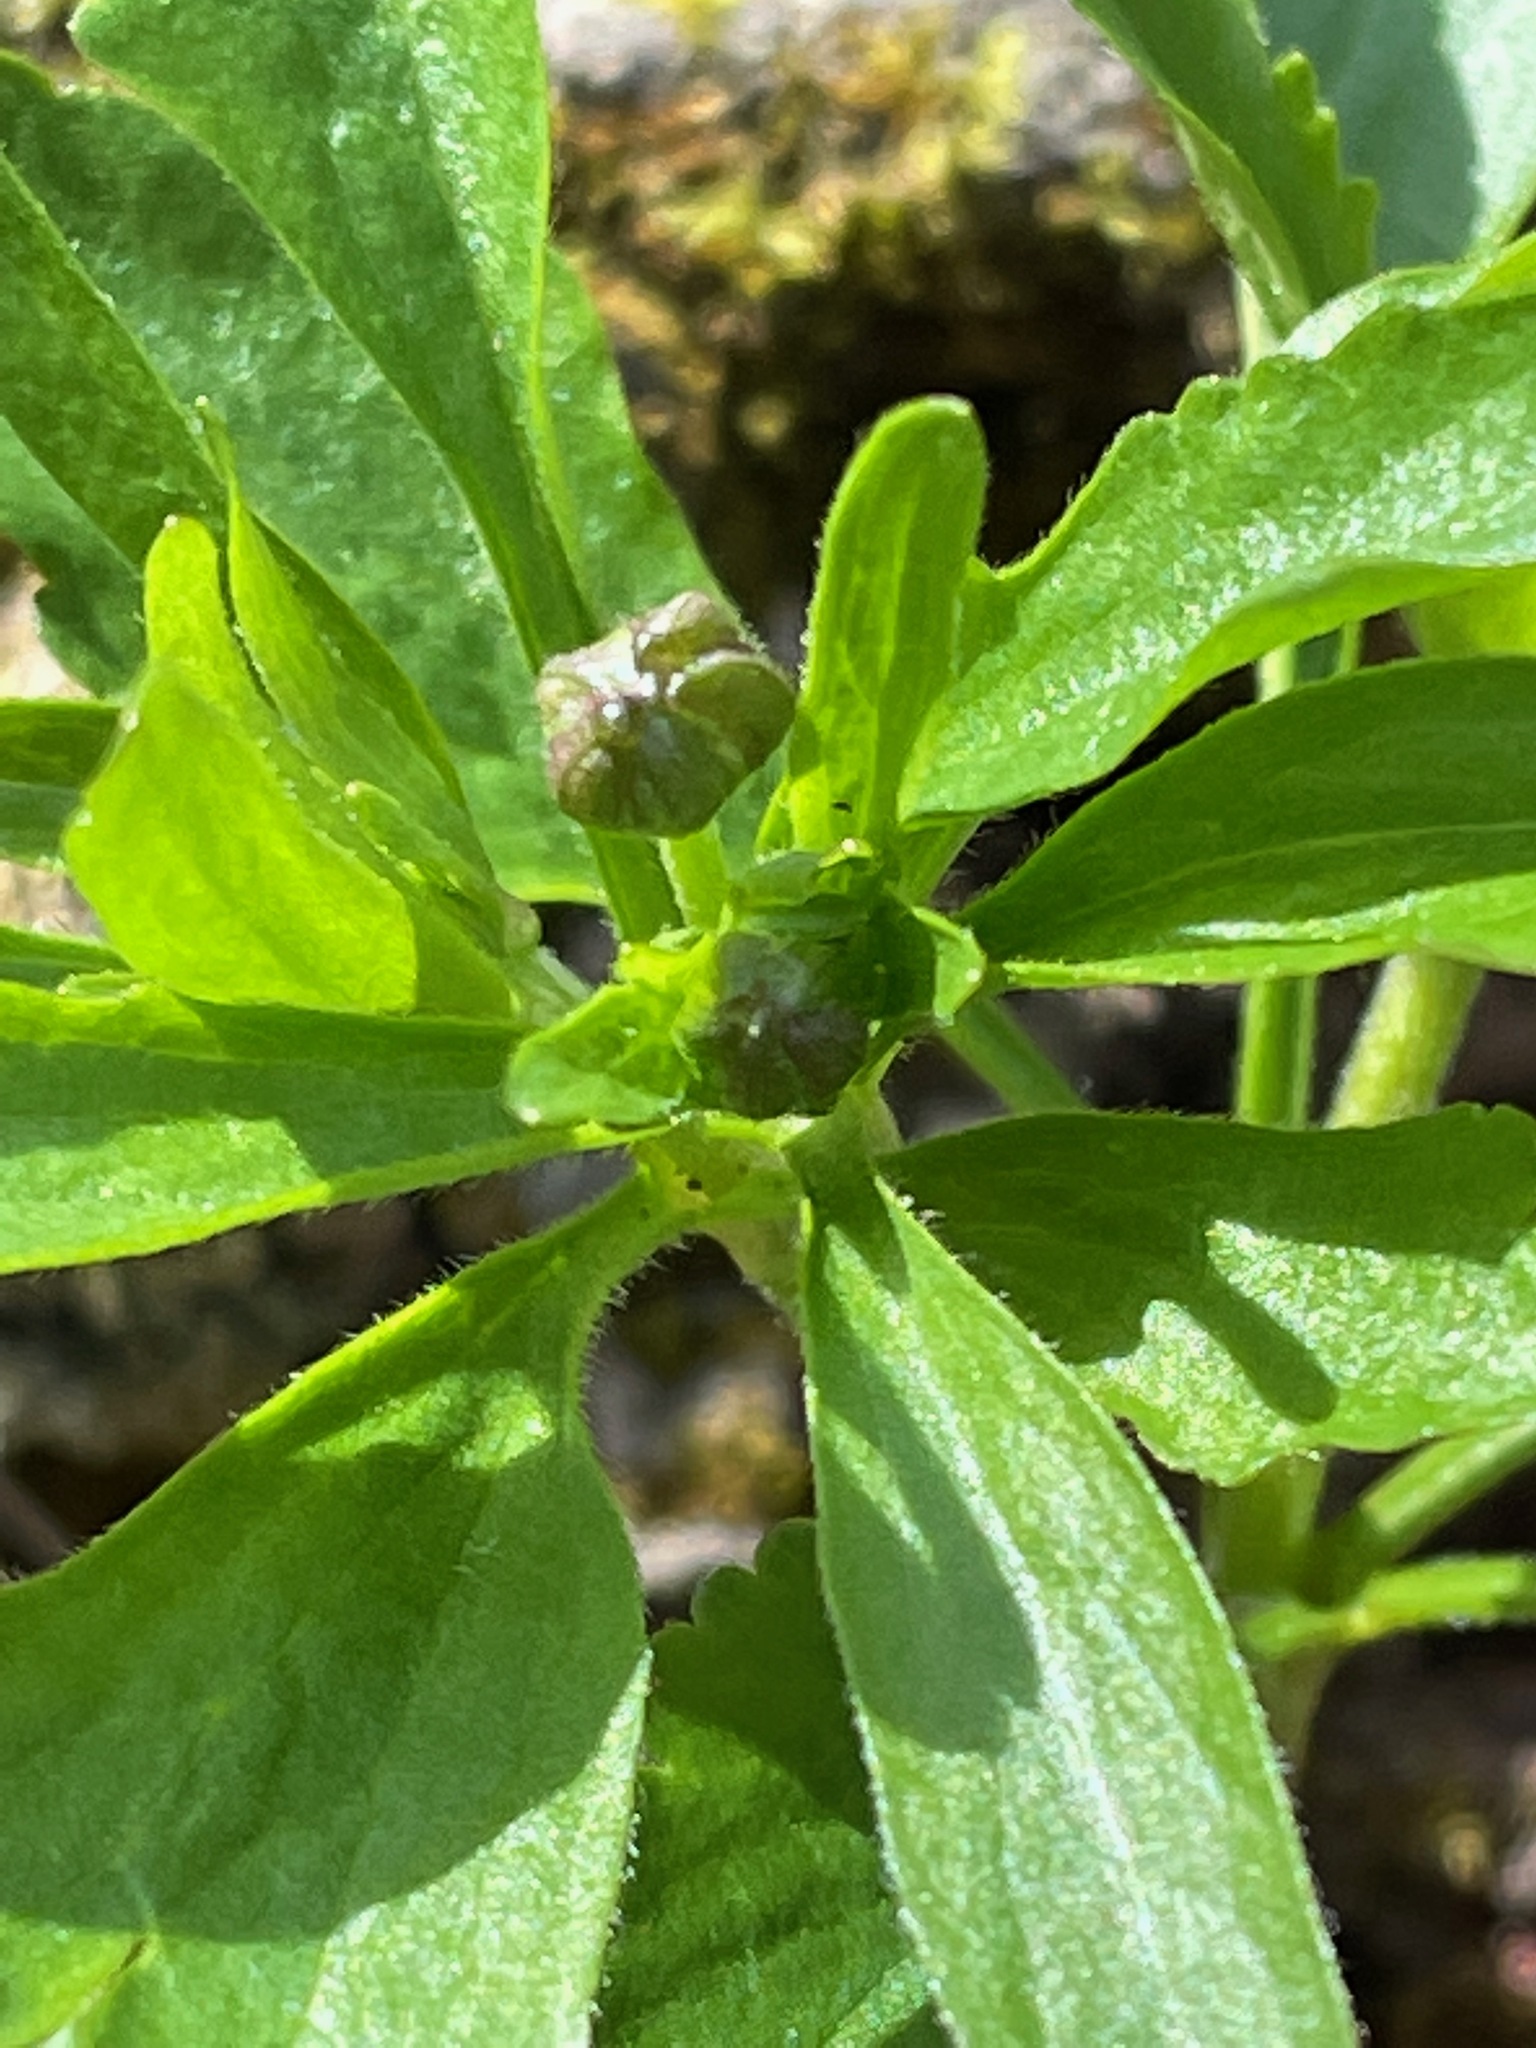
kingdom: Plantae
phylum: Tracheophyta
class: Magnoliopsida
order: Ranunculales
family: Ranunculaceae
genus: Ranunculus
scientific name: Ranunculus abortivus
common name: Early wood buttercup
